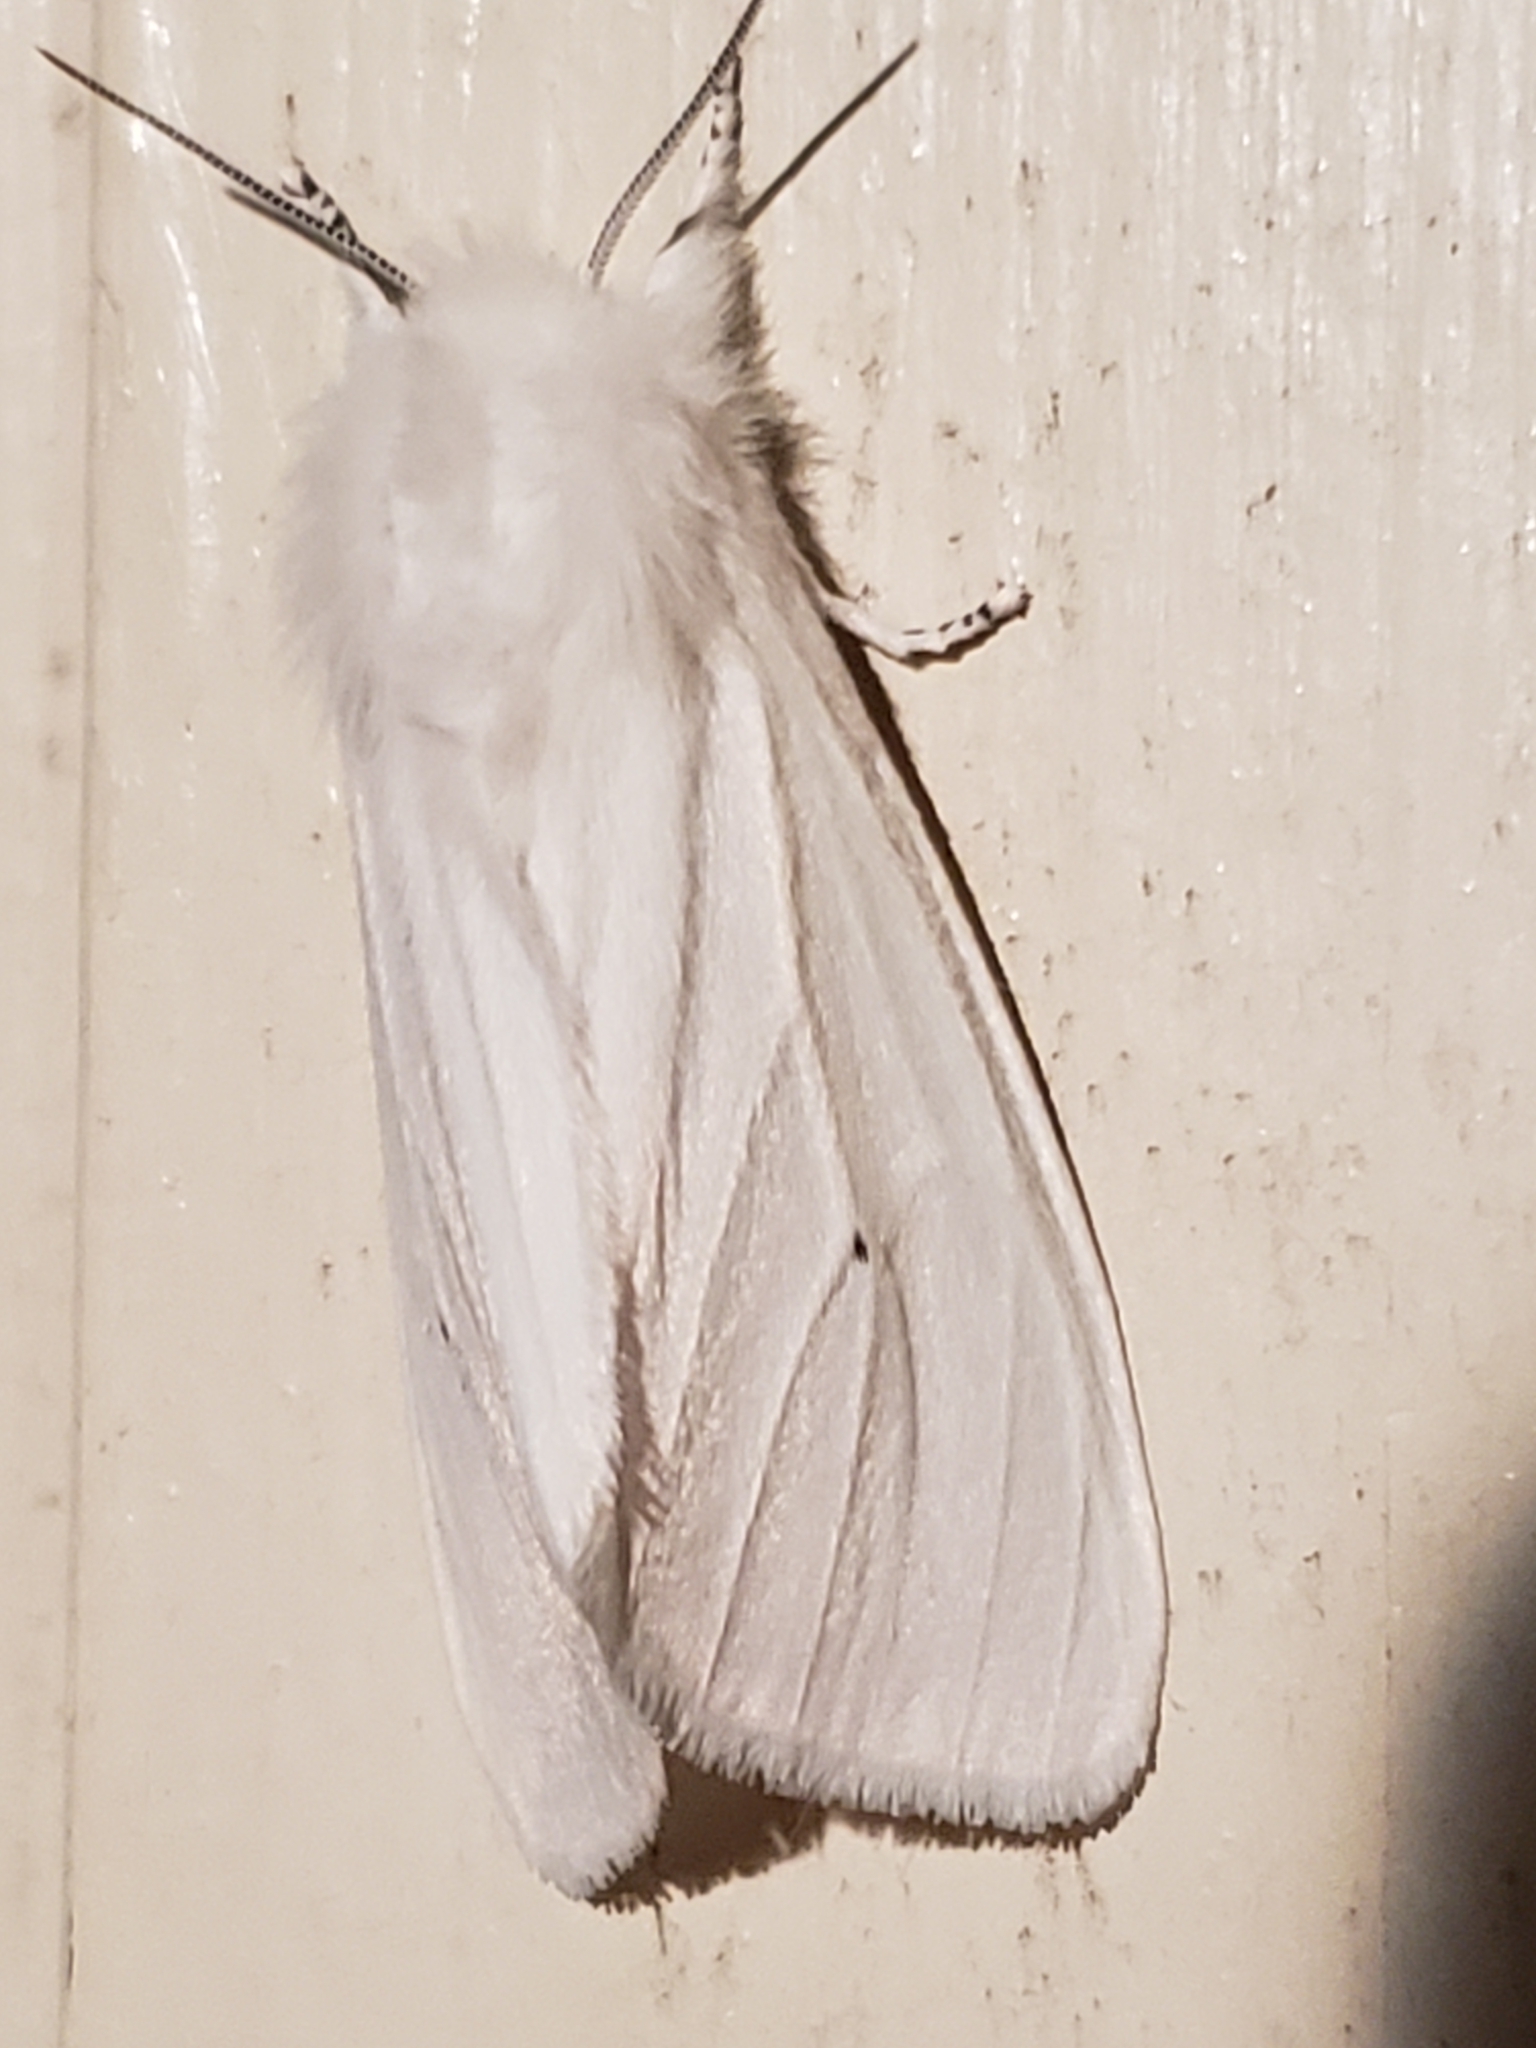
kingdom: Animalia
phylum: Arthropoda
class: Insecta
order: Lepidoptera
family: Erebidae
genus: Spilosoma
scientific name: Spilosoma virginica
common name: Virginia tiger moth
